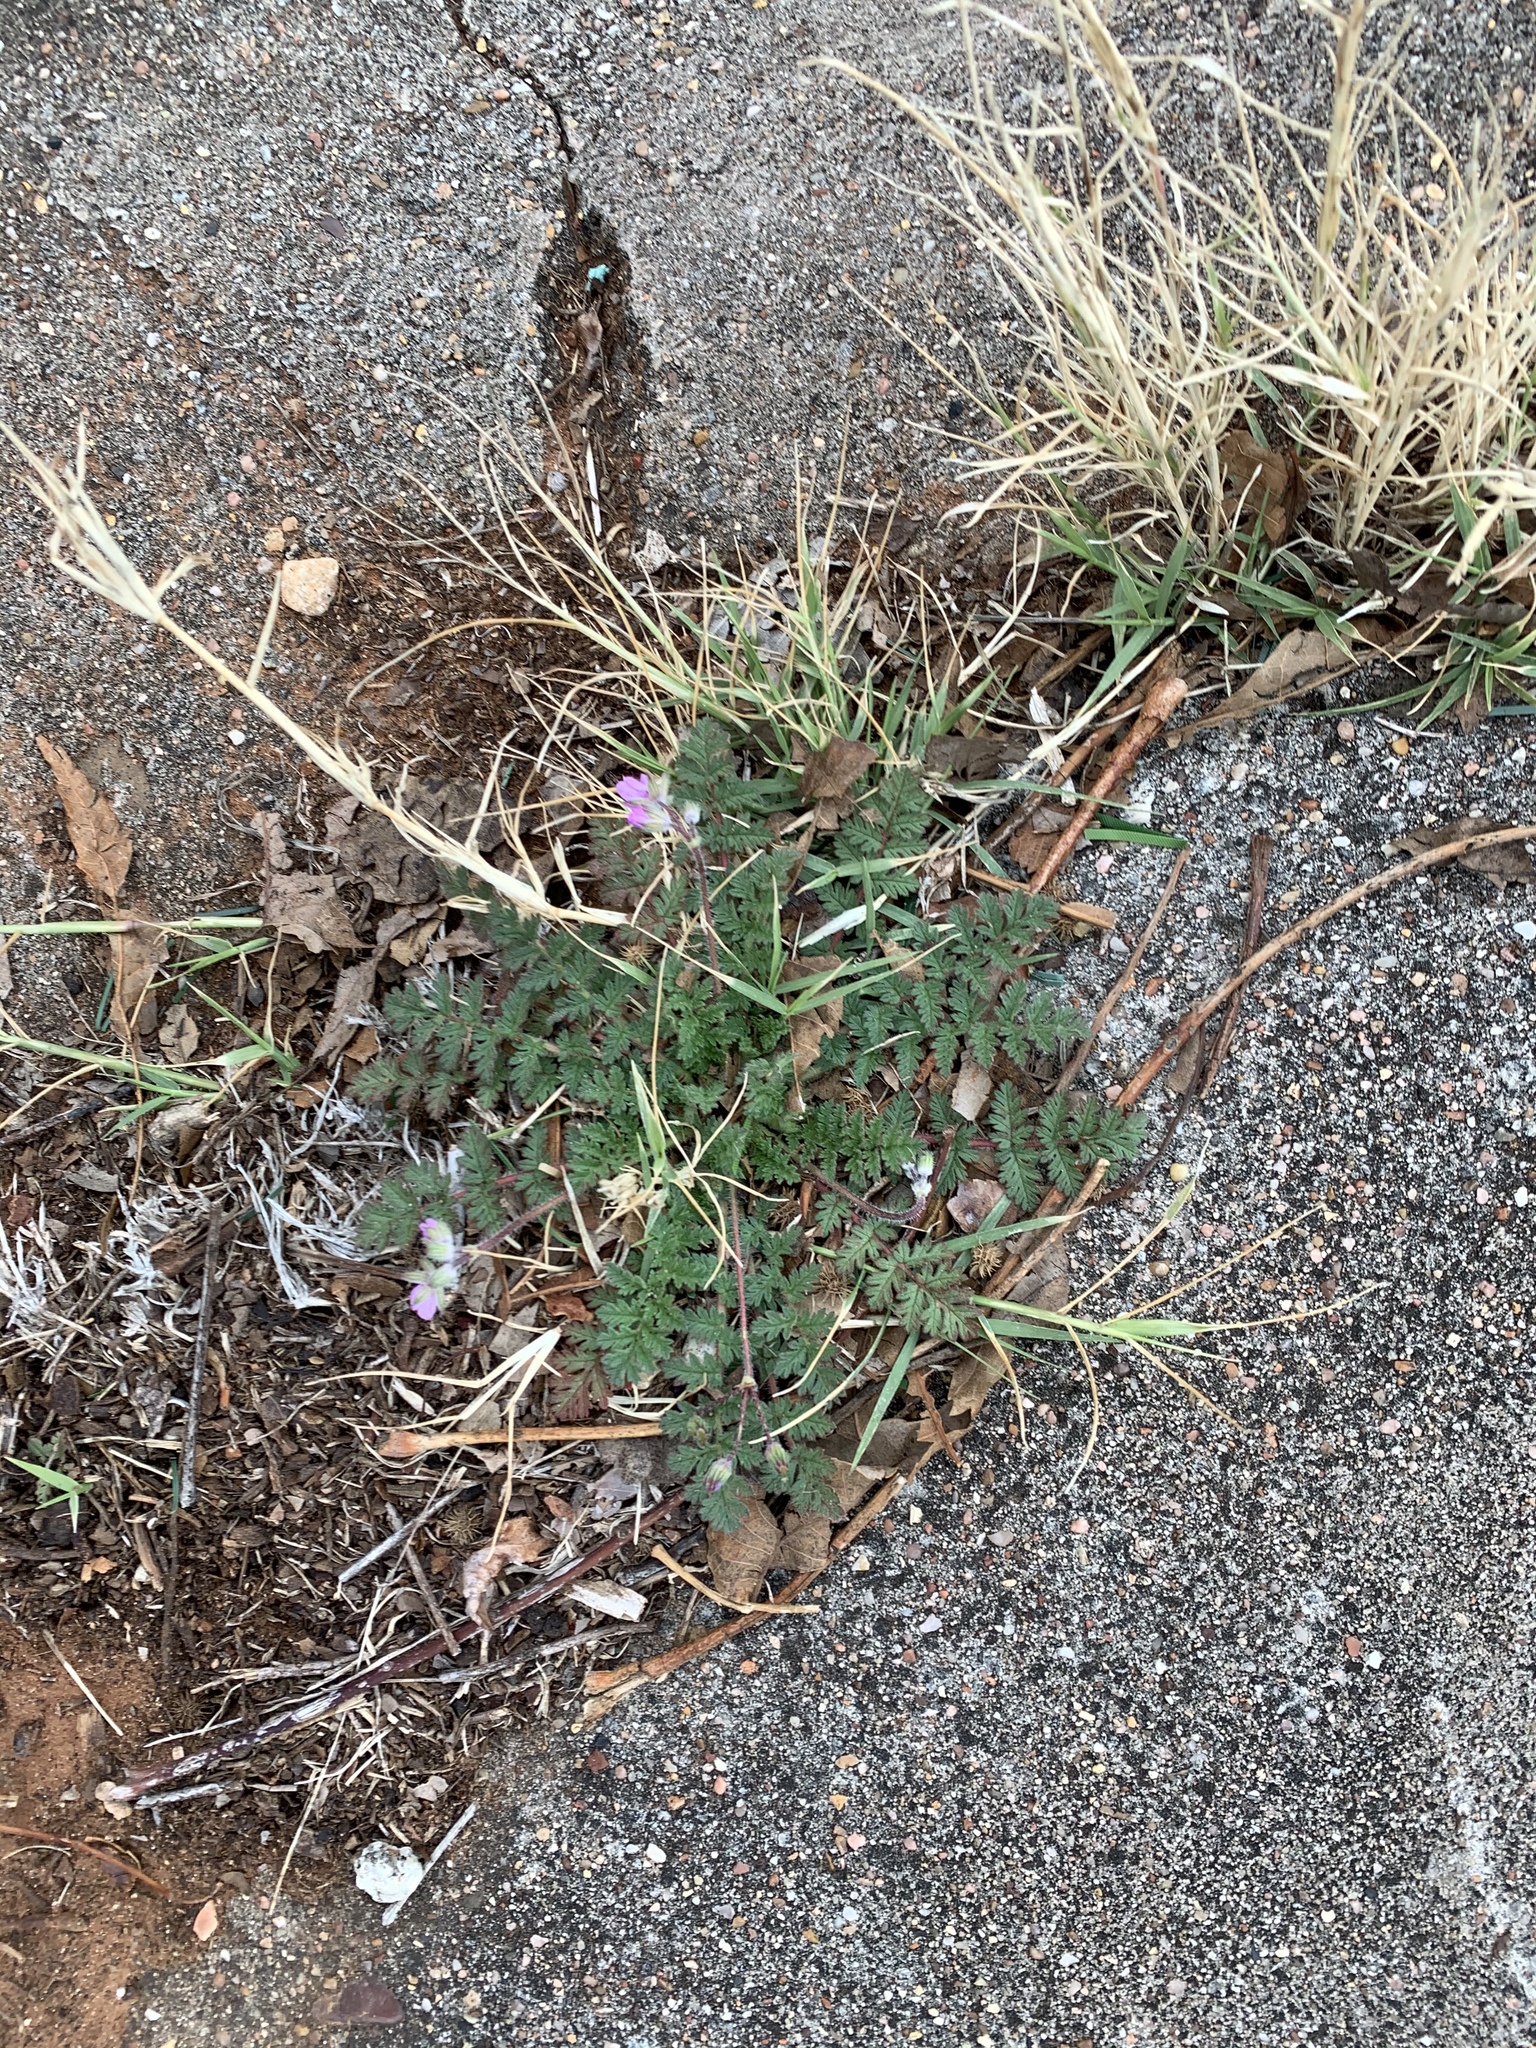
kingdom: Plantae
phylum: Tracheophyta
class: Magnoliopsida
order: Geraniales
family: Geraniaceae
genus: Erodium
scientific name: Erodium cicutarium
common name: Common stork's-bill
